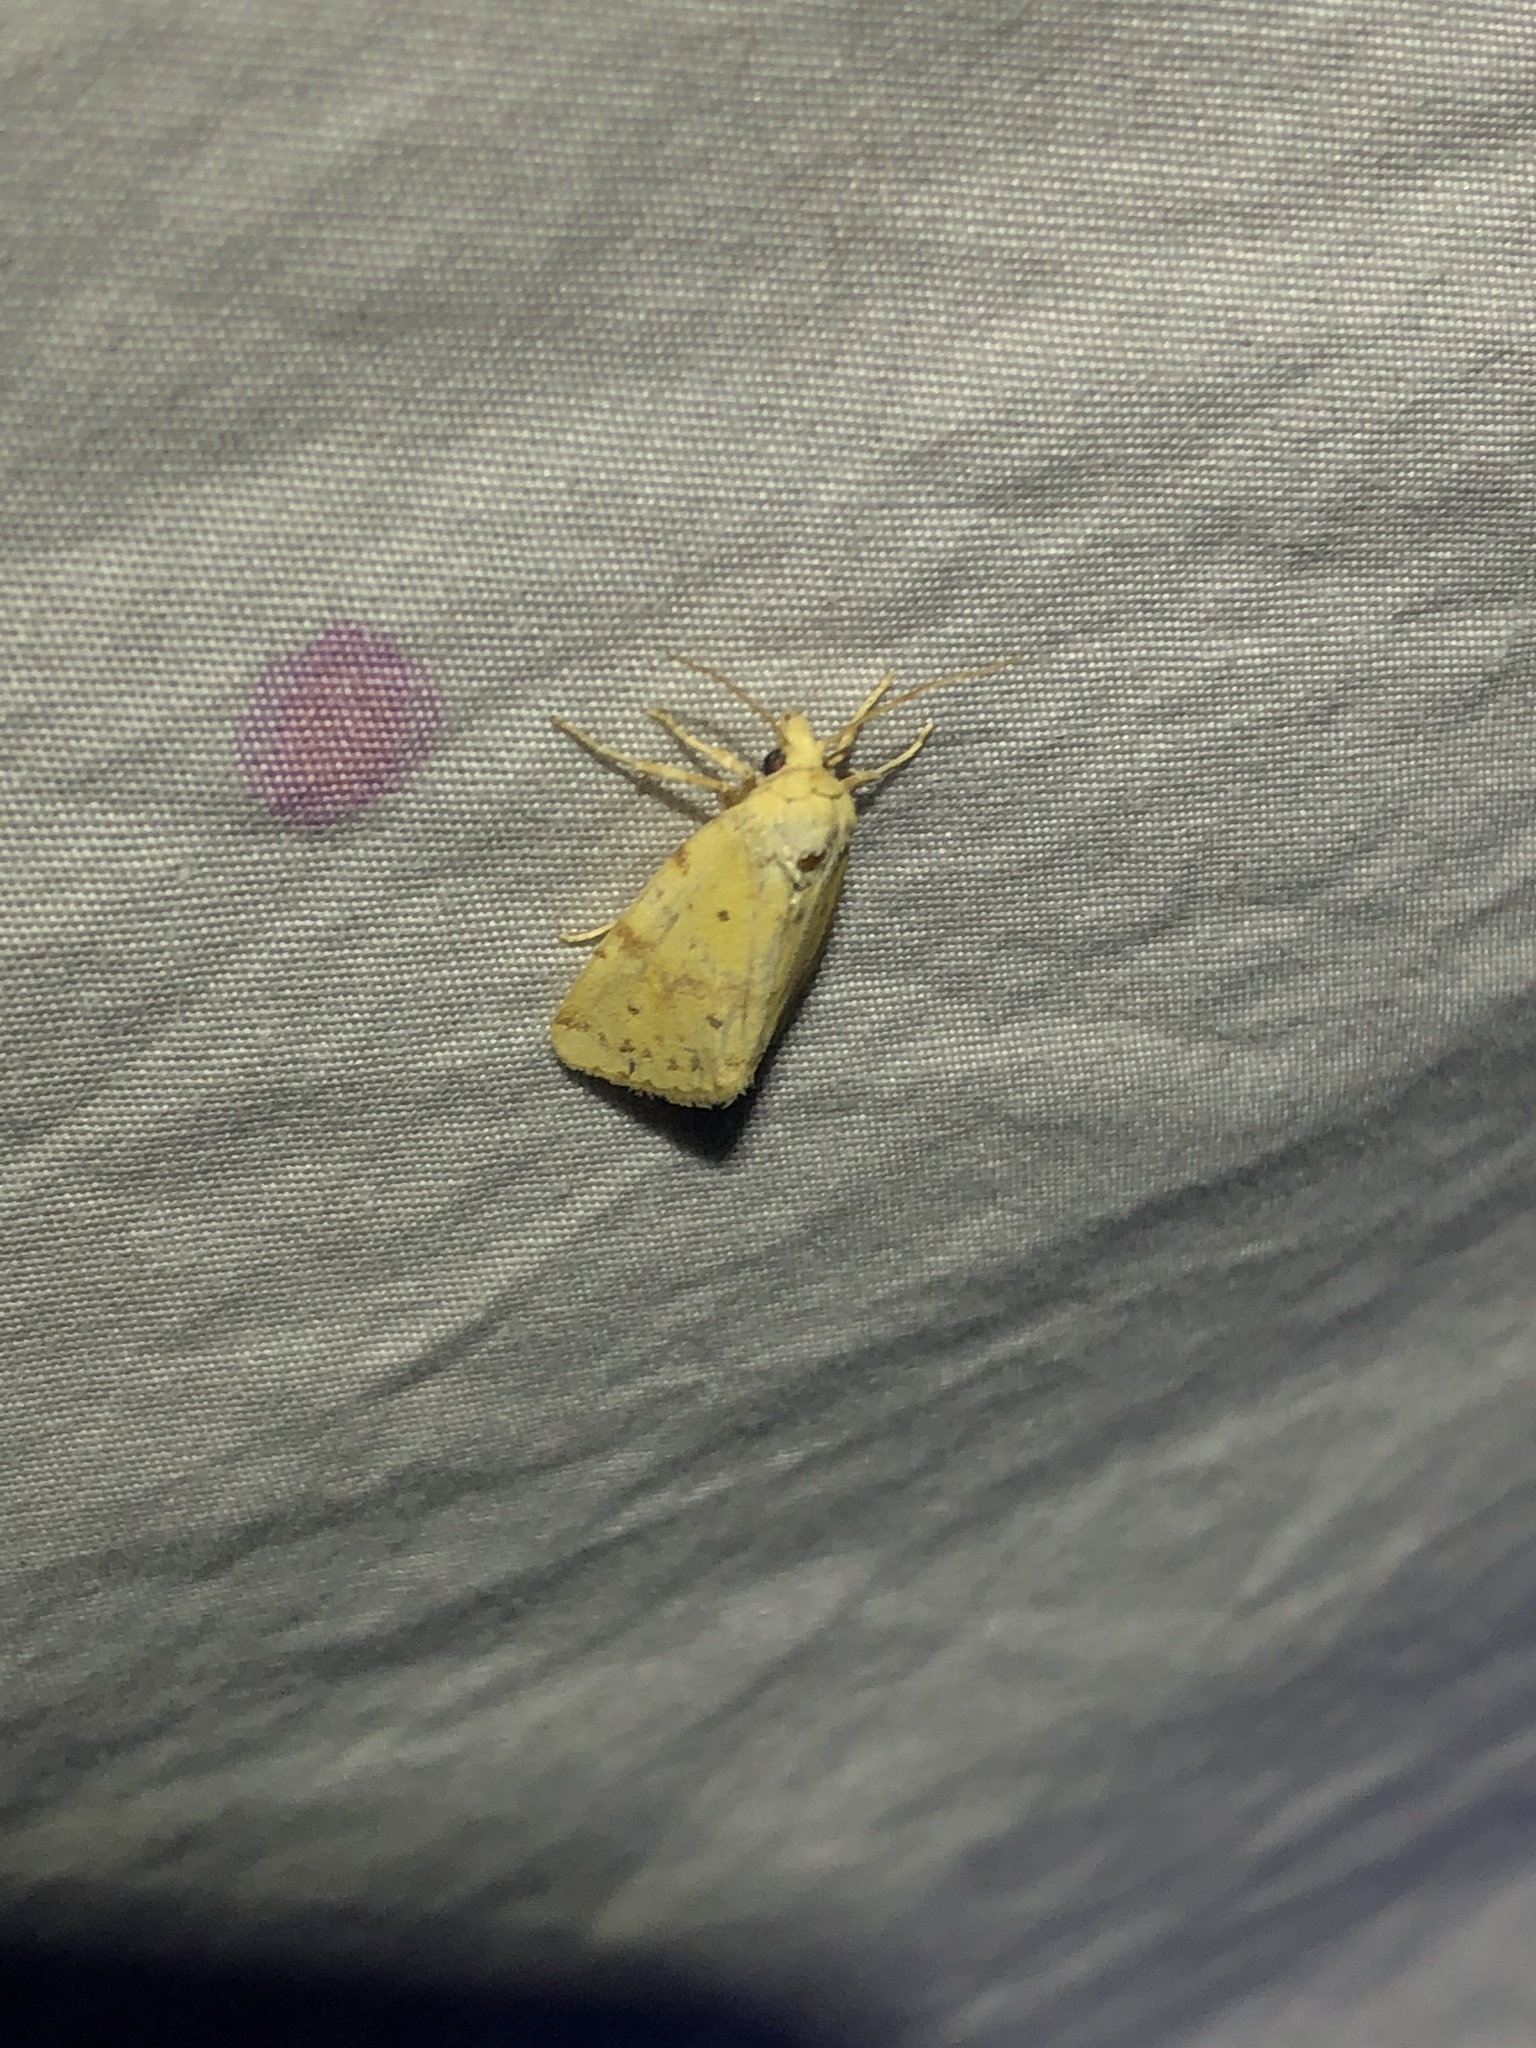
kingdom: Animalia
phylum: Arthropoda
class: Insecta
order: Lepidoptera
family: Noctuidae
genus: Azenia
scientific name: Azenia implora
